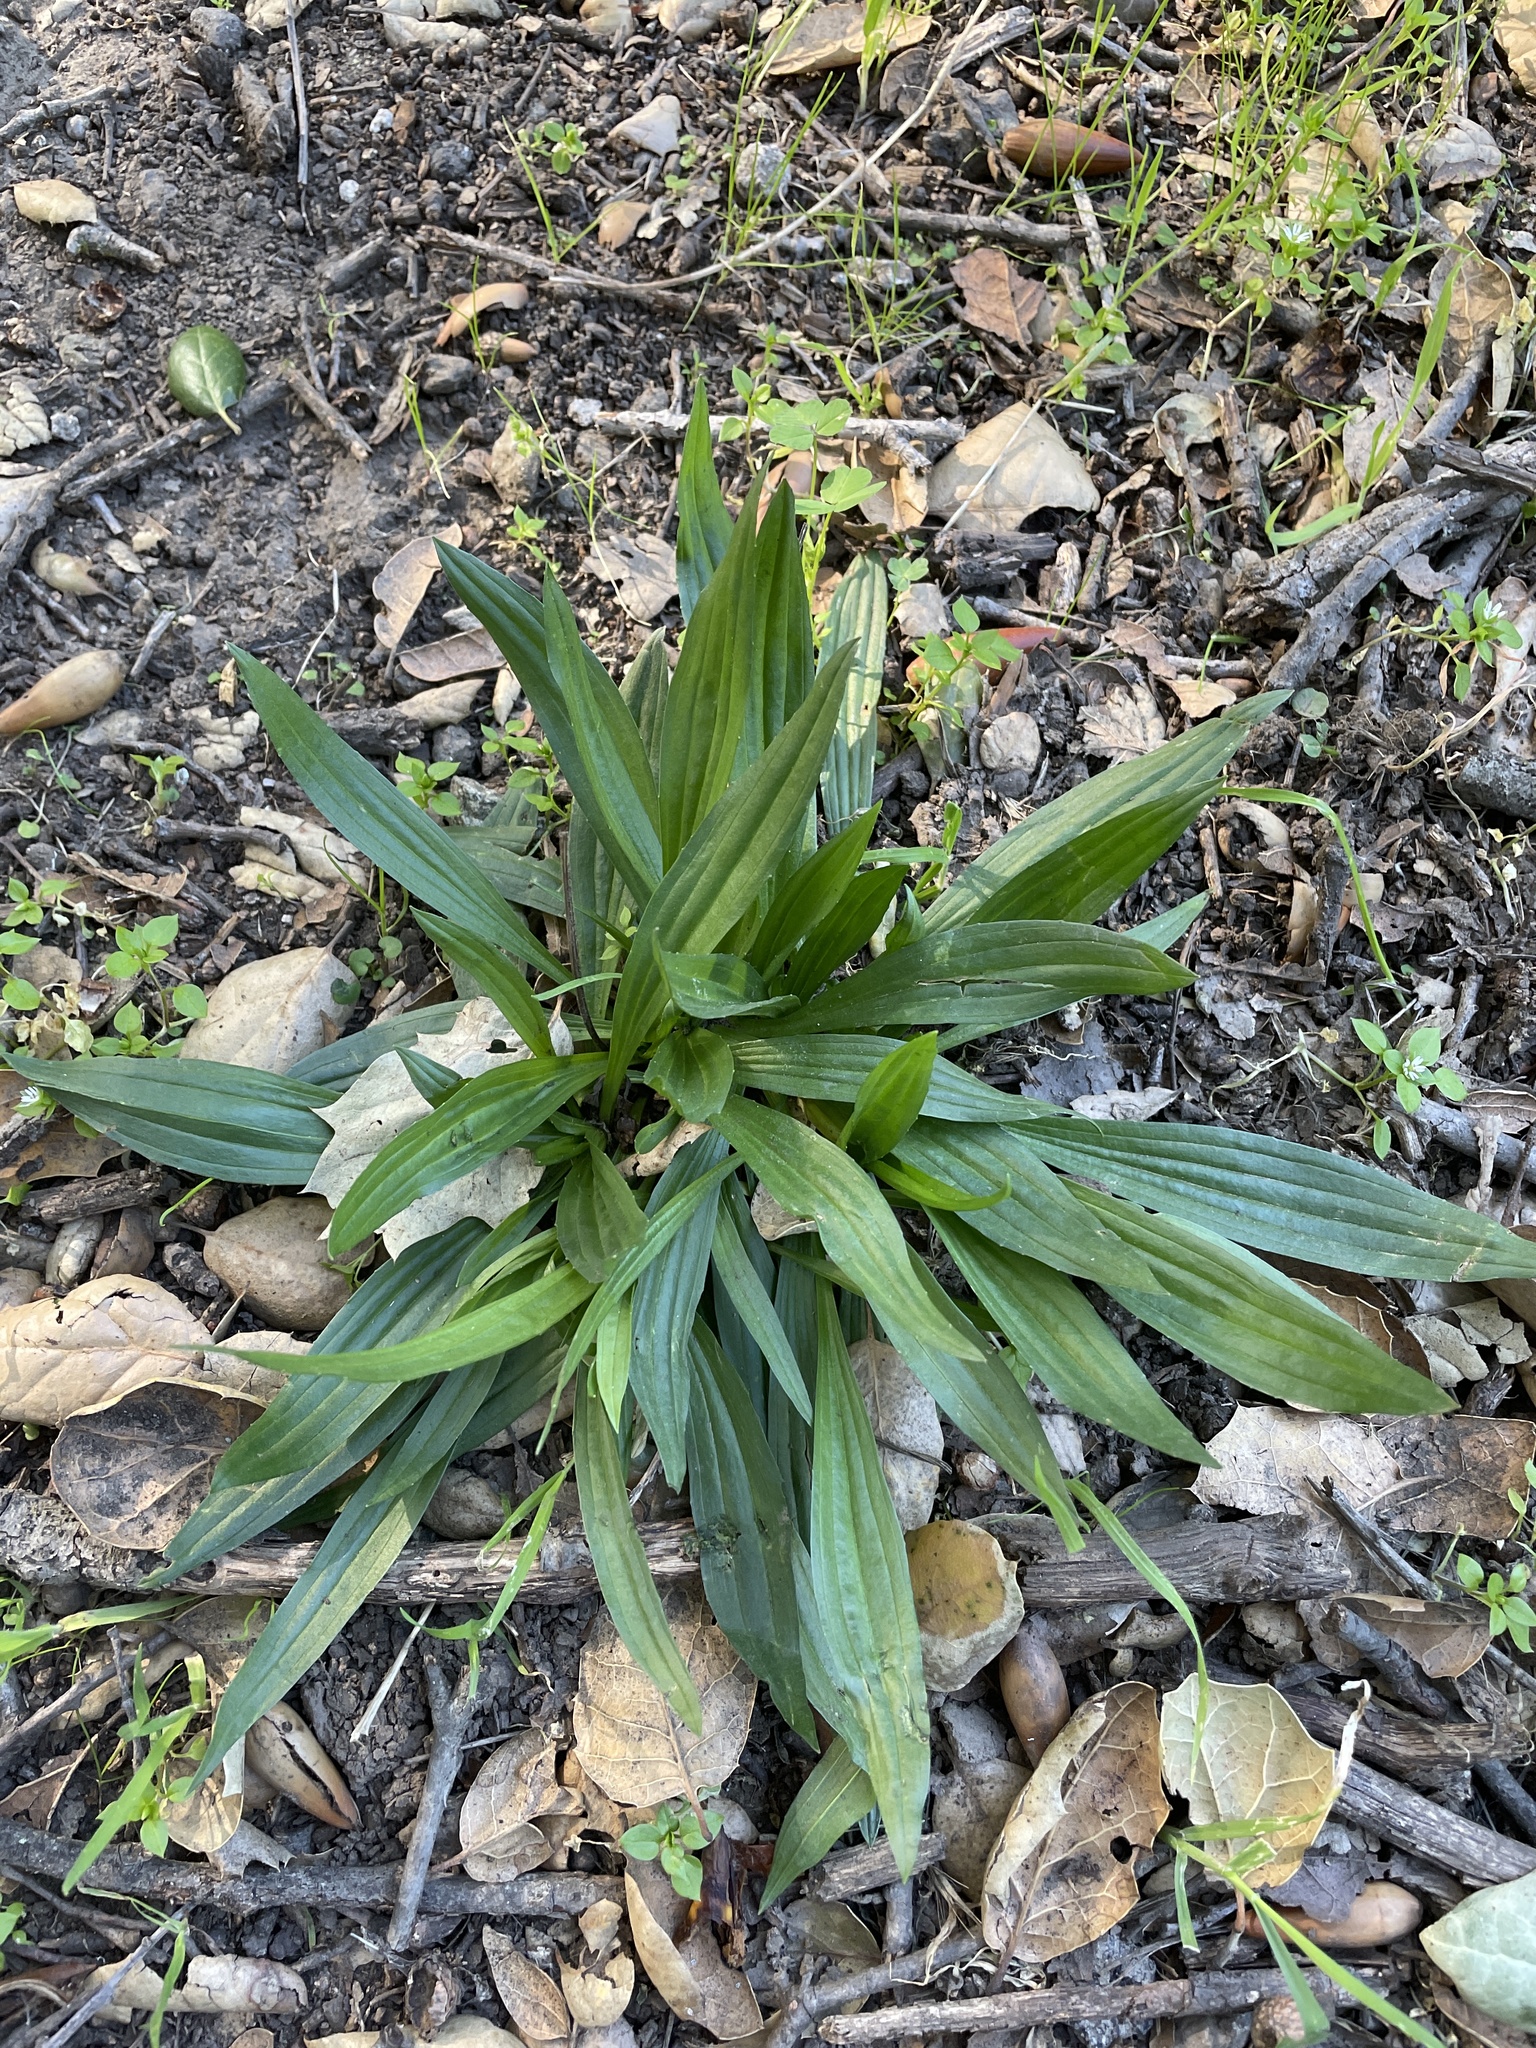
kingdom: Plantae
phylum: Tracheophyta
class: Magnoliopsida
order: Lamiales
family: Plantaginaceae
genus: Plantago
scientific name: Plantago lanceolata
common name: Ribwort plantain
